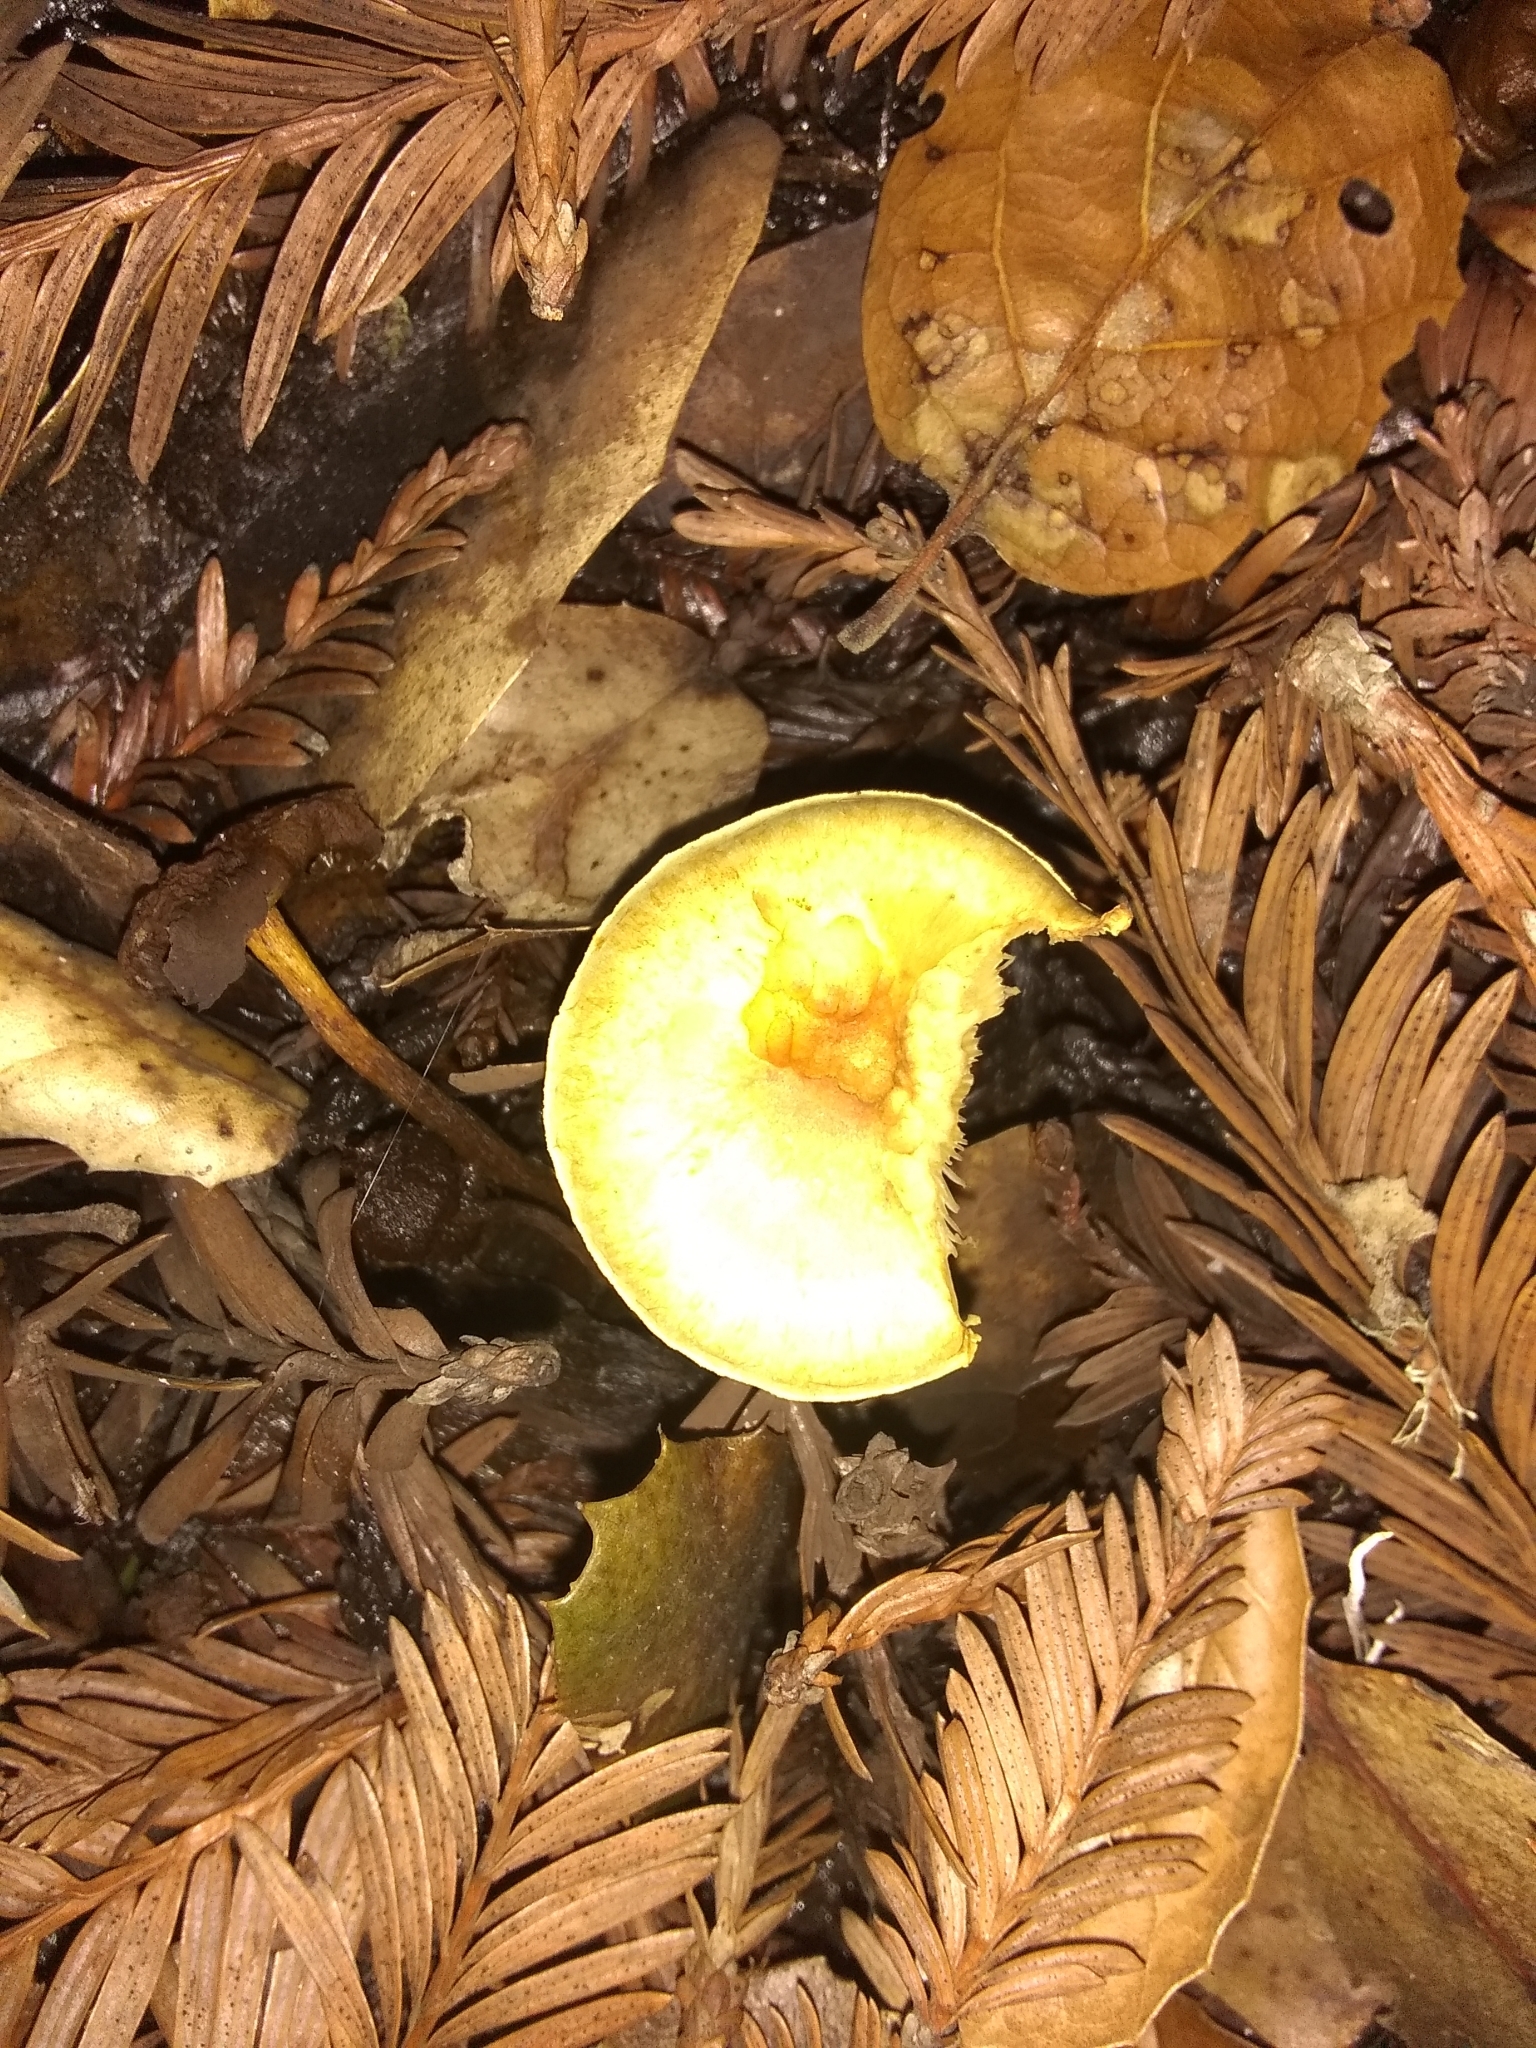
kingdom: Fungi
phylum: Basidiomycota
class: Agaricomycetes
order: Agaricales
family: Strophariaceae
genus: Hypholoma
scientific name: Hypholoma fasciculare
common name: Sulphur tuft
